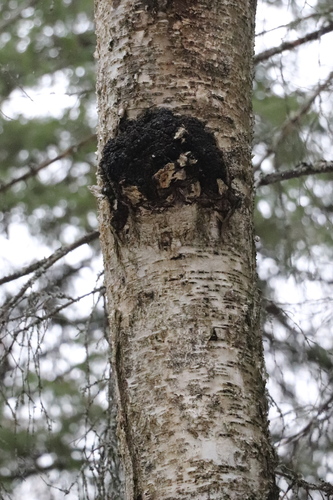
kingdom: Fungi
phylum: Basidiomycota
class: Agaricomycetes
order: Hymenochaetales
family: Hymenochaetaceae
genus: Inonotus
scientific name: Inonotus obliquus
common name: Chaga
